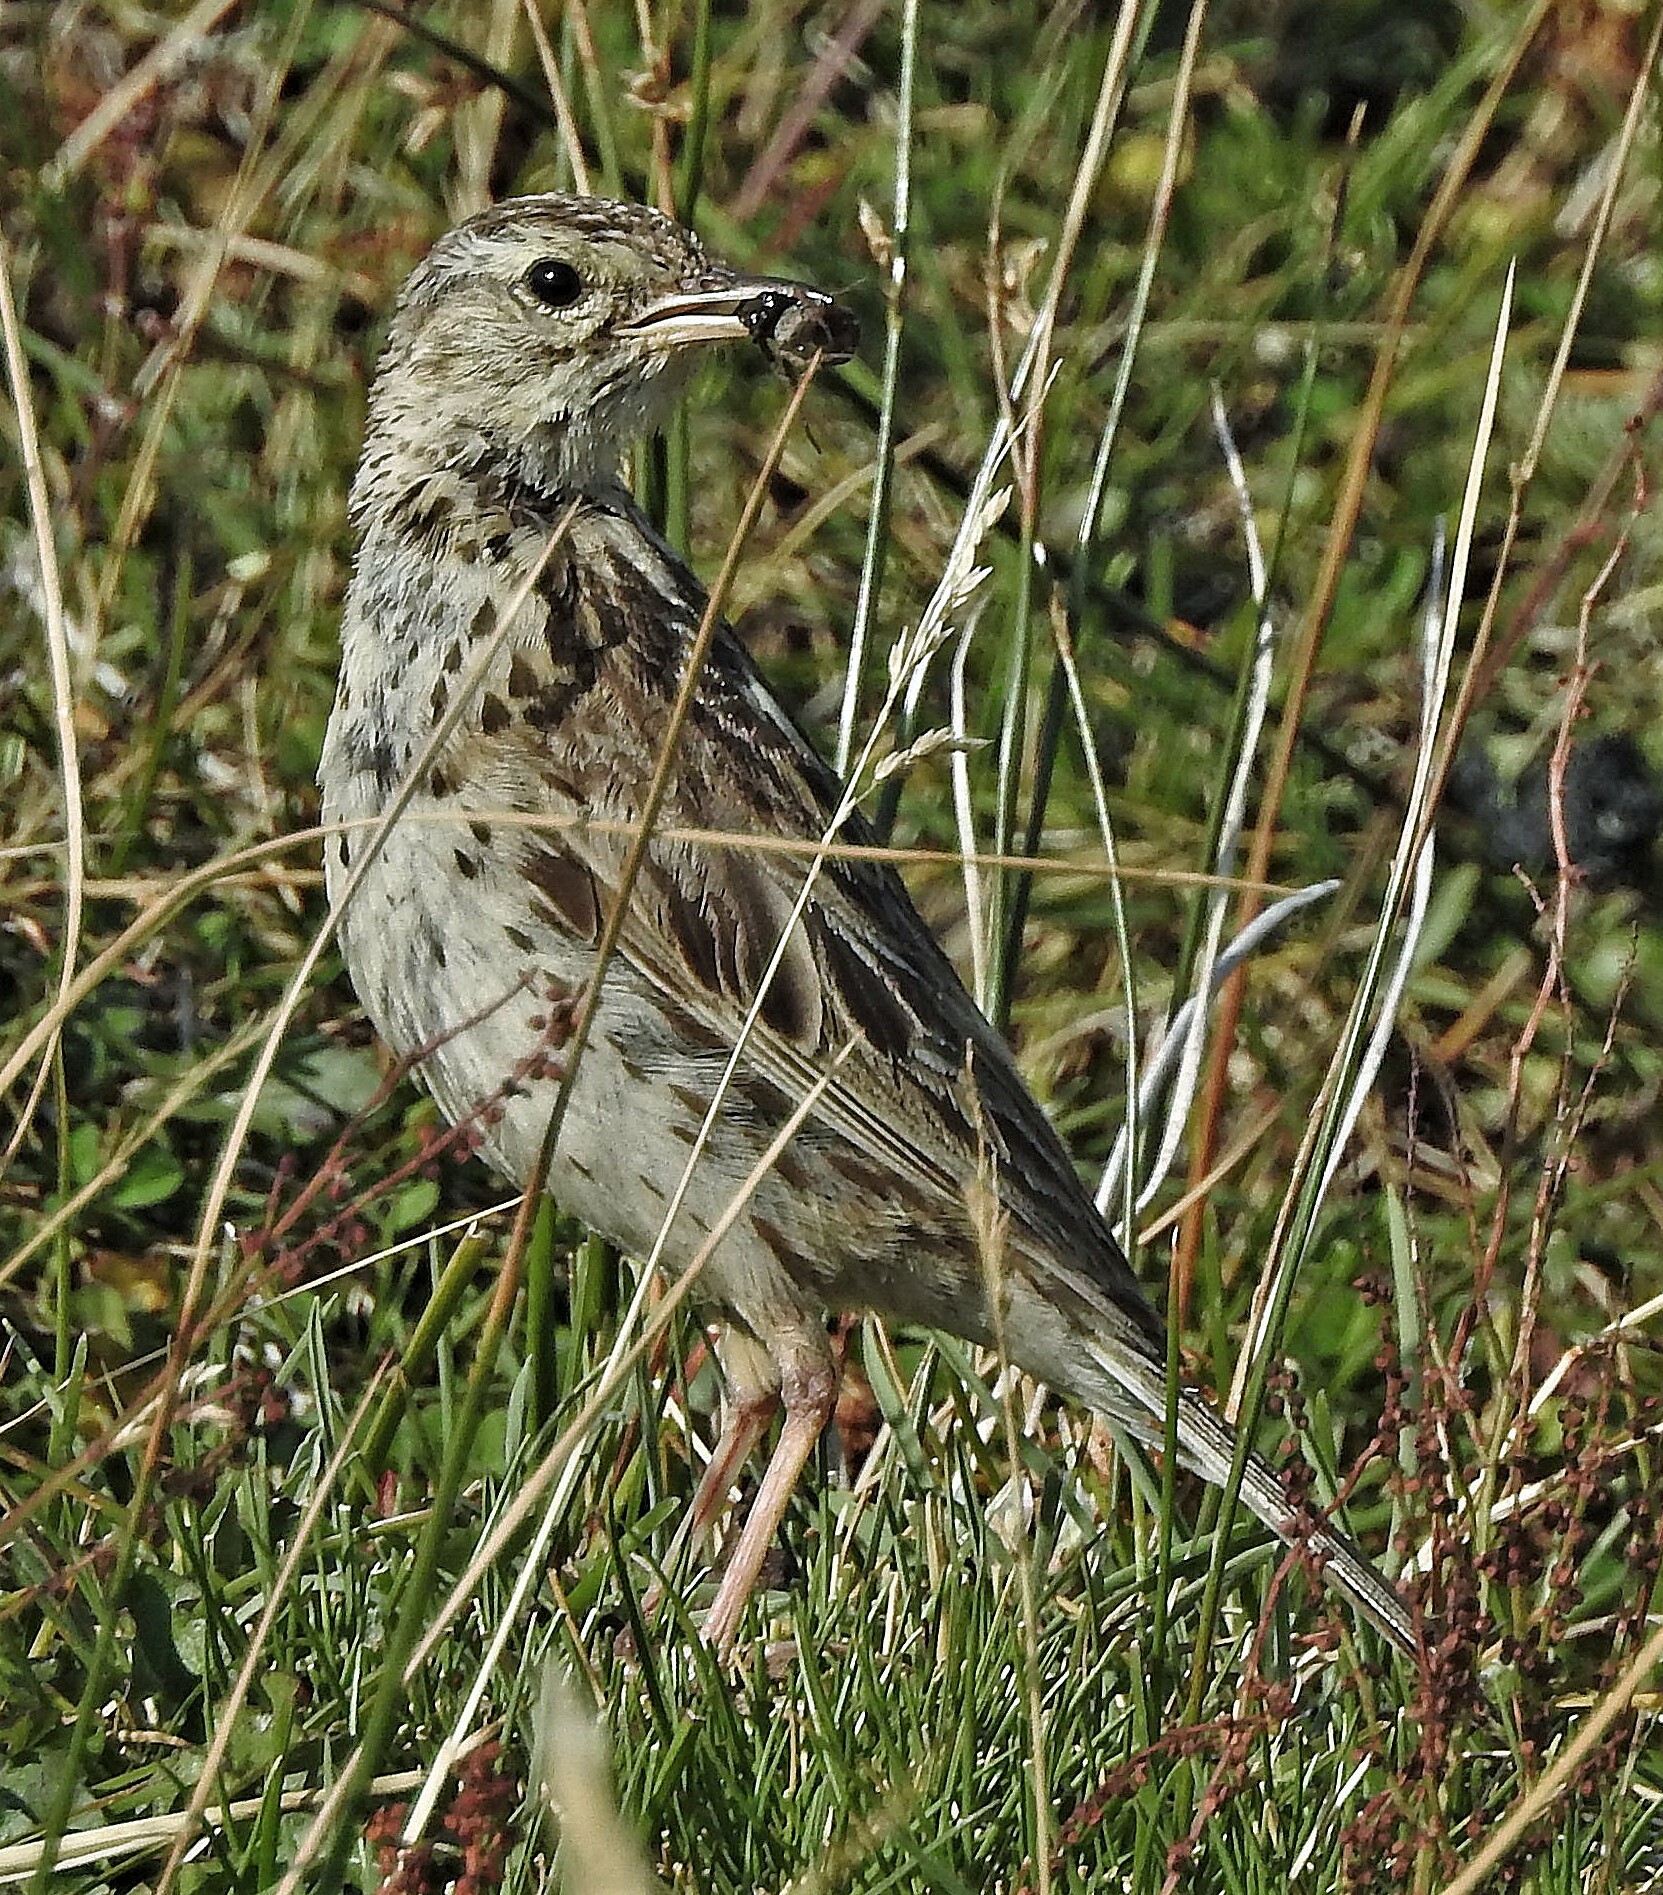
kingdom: Animalia
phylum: Chordata
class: Aves
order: Passeriformes
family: Motacillidae
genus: Anthus
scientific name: Anthus correndera
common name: Correndera pipit
